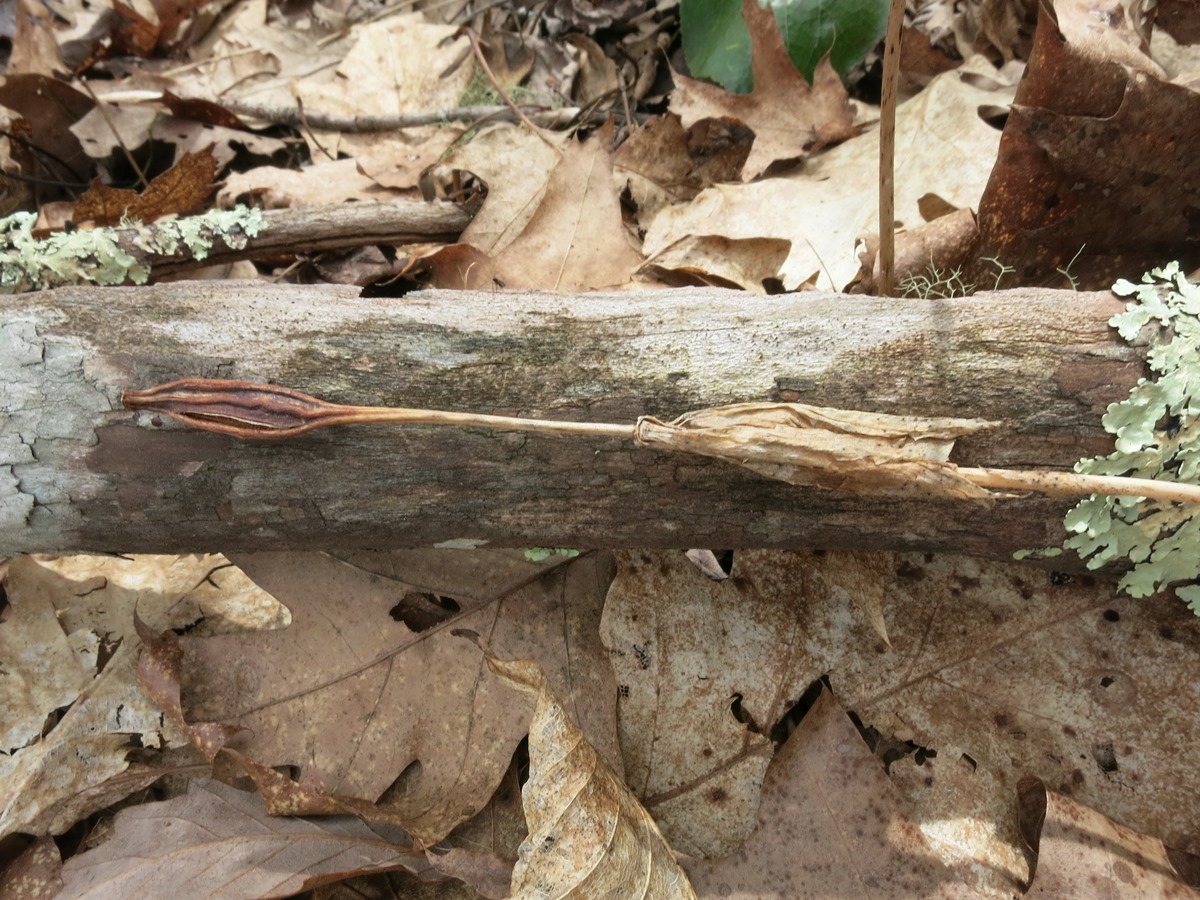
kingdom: Plantae
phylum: Tracheophyta
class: Liliopsida
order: Asparagales
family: Orchidaceae
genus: Isotria
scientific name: Isotria verticillata
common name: Large whorled pogonia
